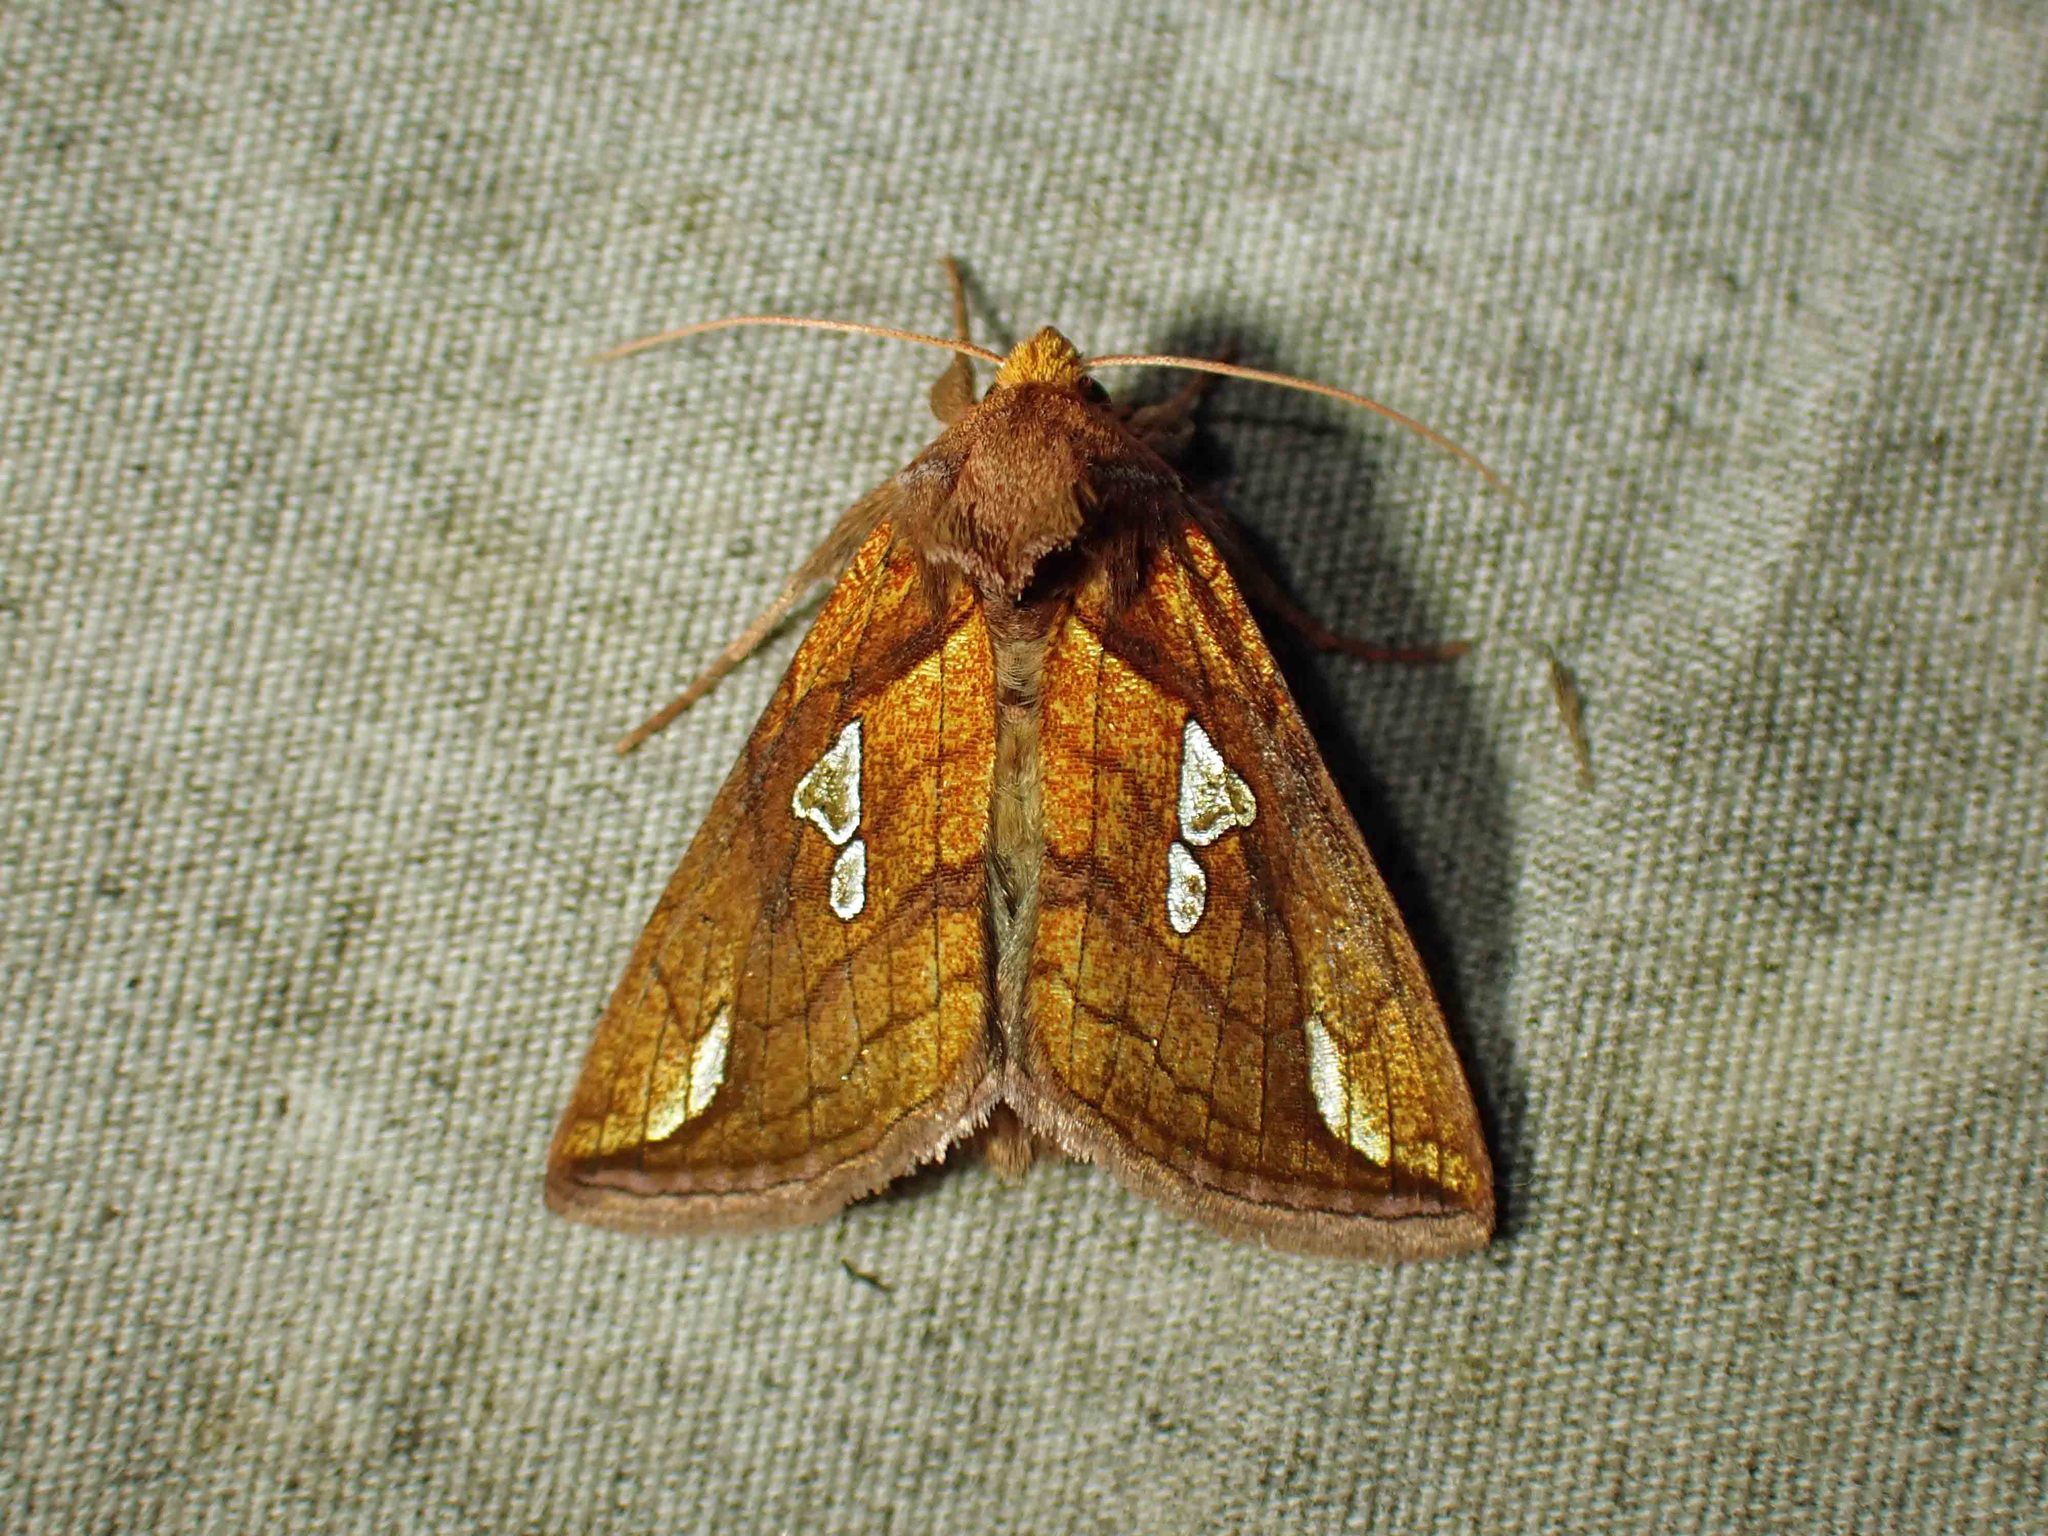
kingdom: Animalia
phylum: Arthropoda
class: Insecta
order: Lepidoptera
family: Noctuidae
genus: Plusia
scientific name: Plusia putnami
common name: Lempke's gold spot
